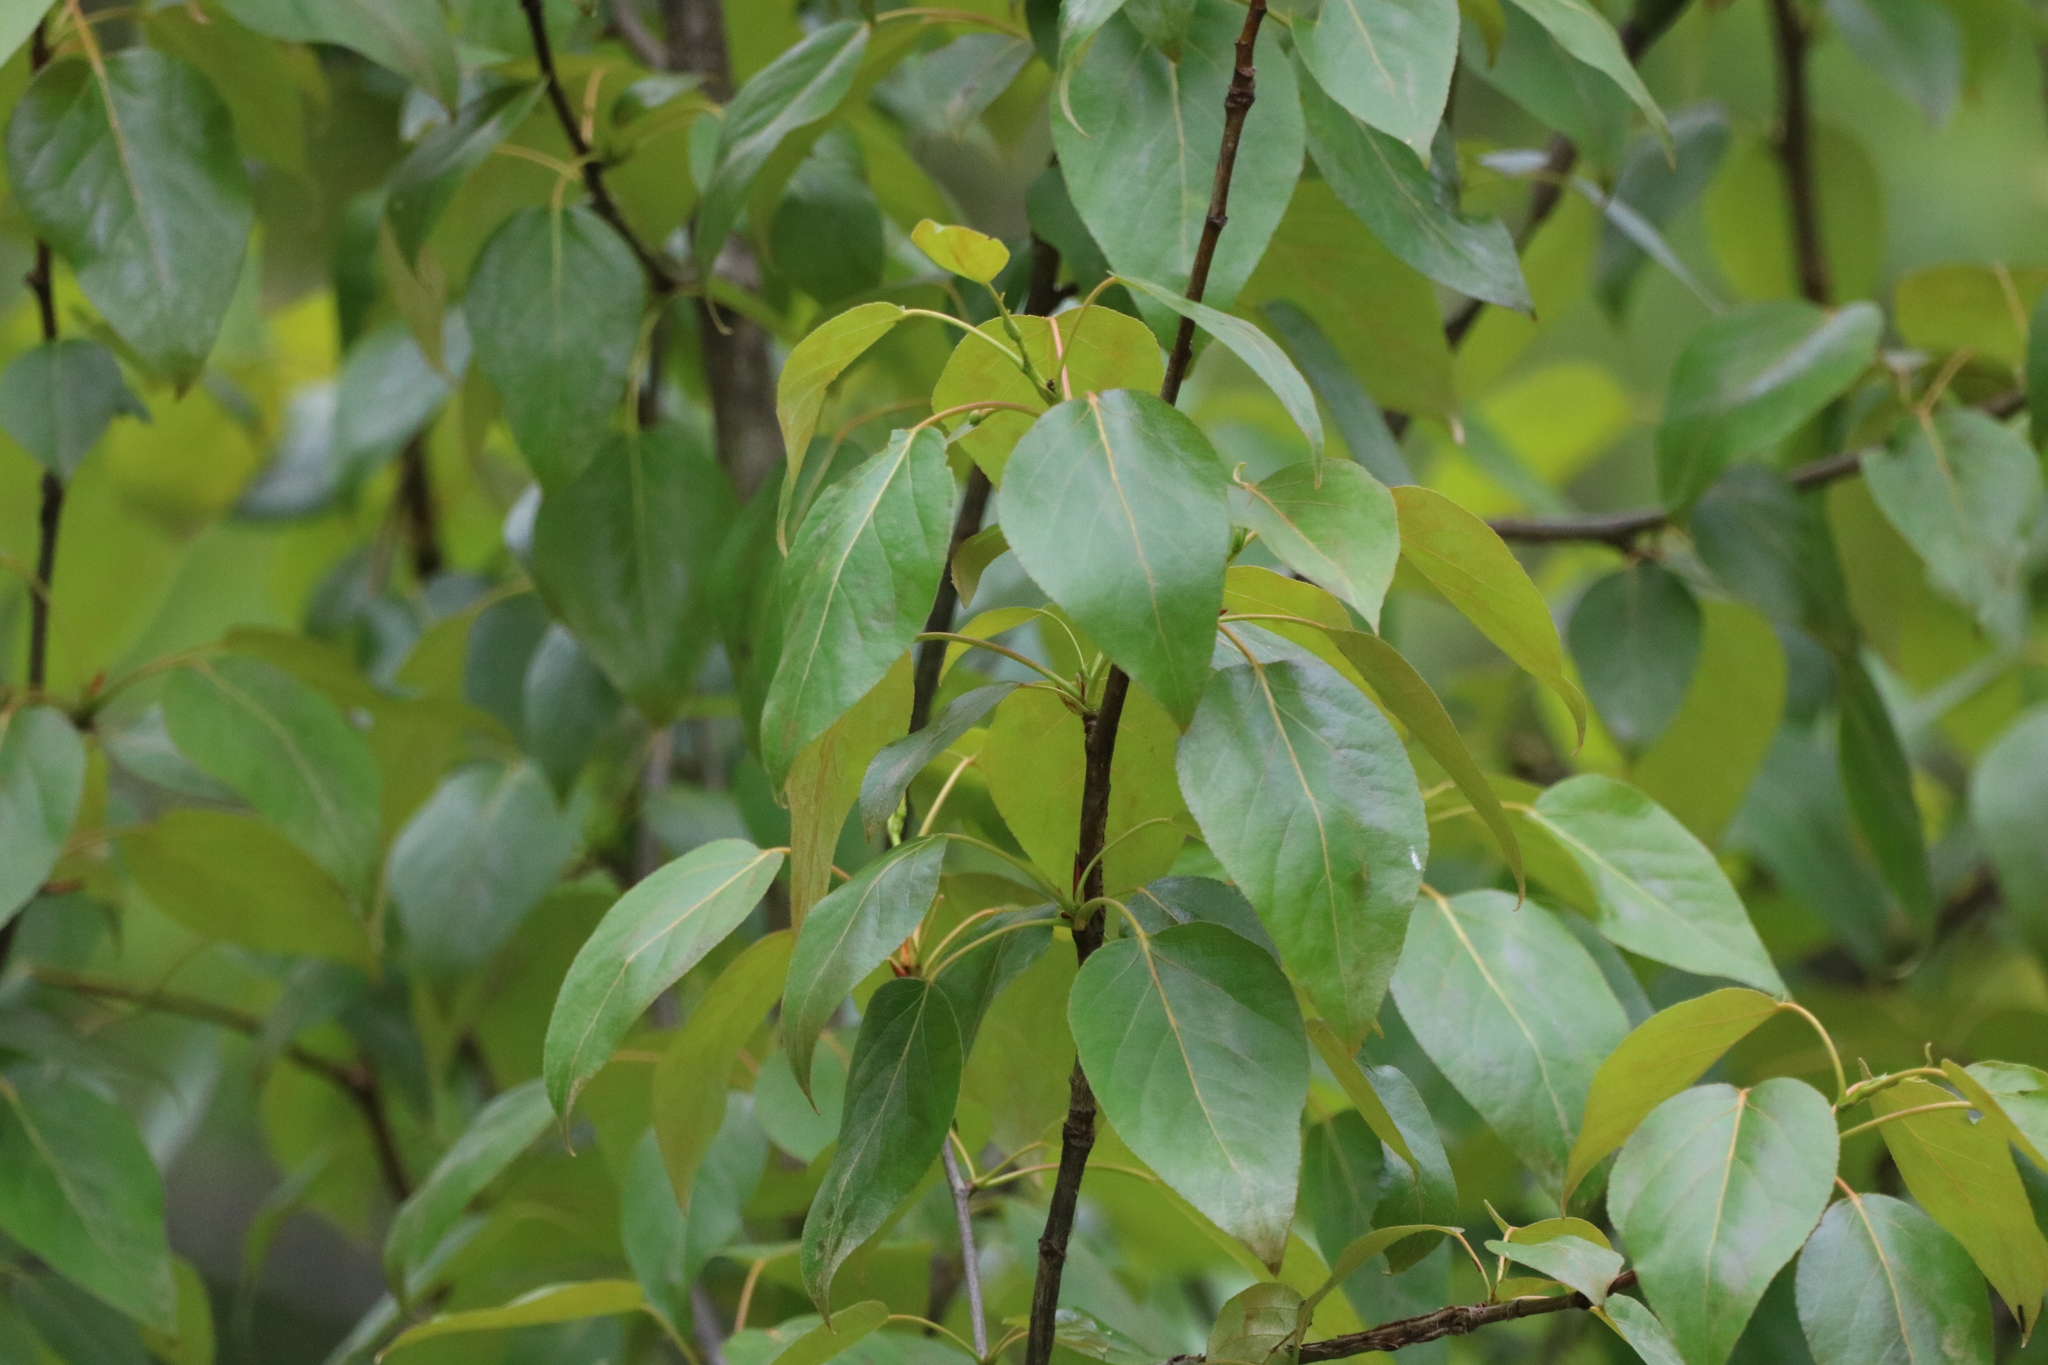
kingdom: Plantae
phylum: Tracheophyta
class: Magnoliopsida
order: Malpighiales
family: Salicaceae
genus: Populus
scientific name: Populus balsamifera
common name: Balsam poplar
